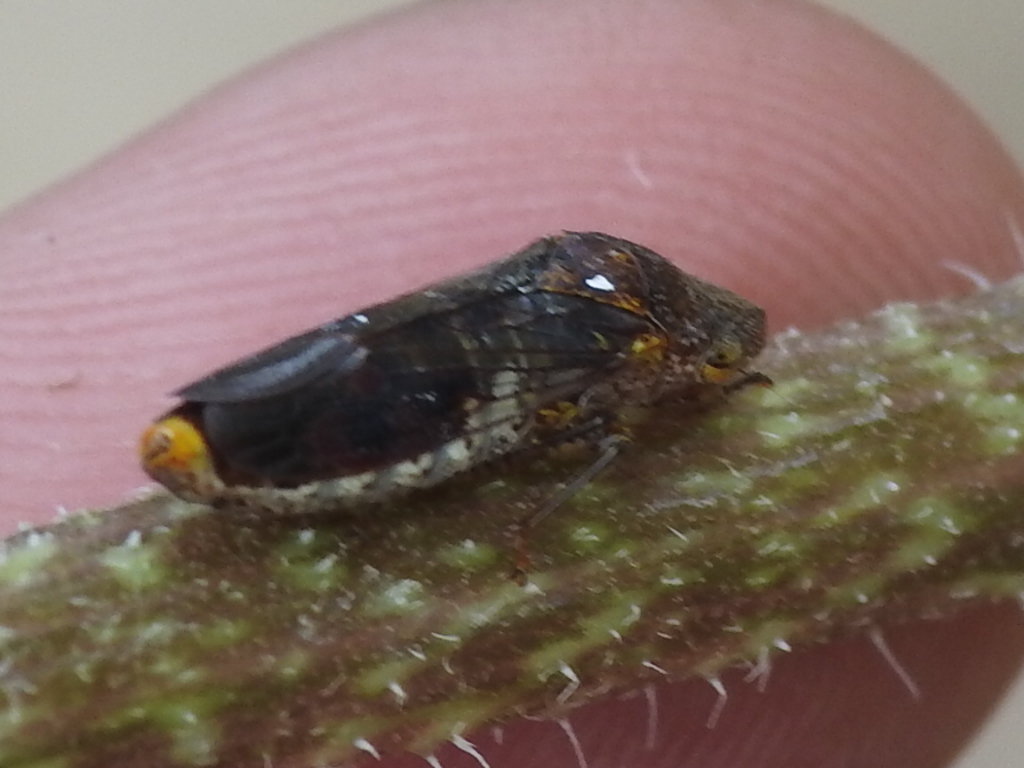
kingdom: Animalia
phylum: Arthropoda
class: Insecta
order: Hemiptera
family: Cicadellidae
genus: Homalodisca
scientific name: Homalodisca vitripennis
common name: Glassy-winged sharpshooter
